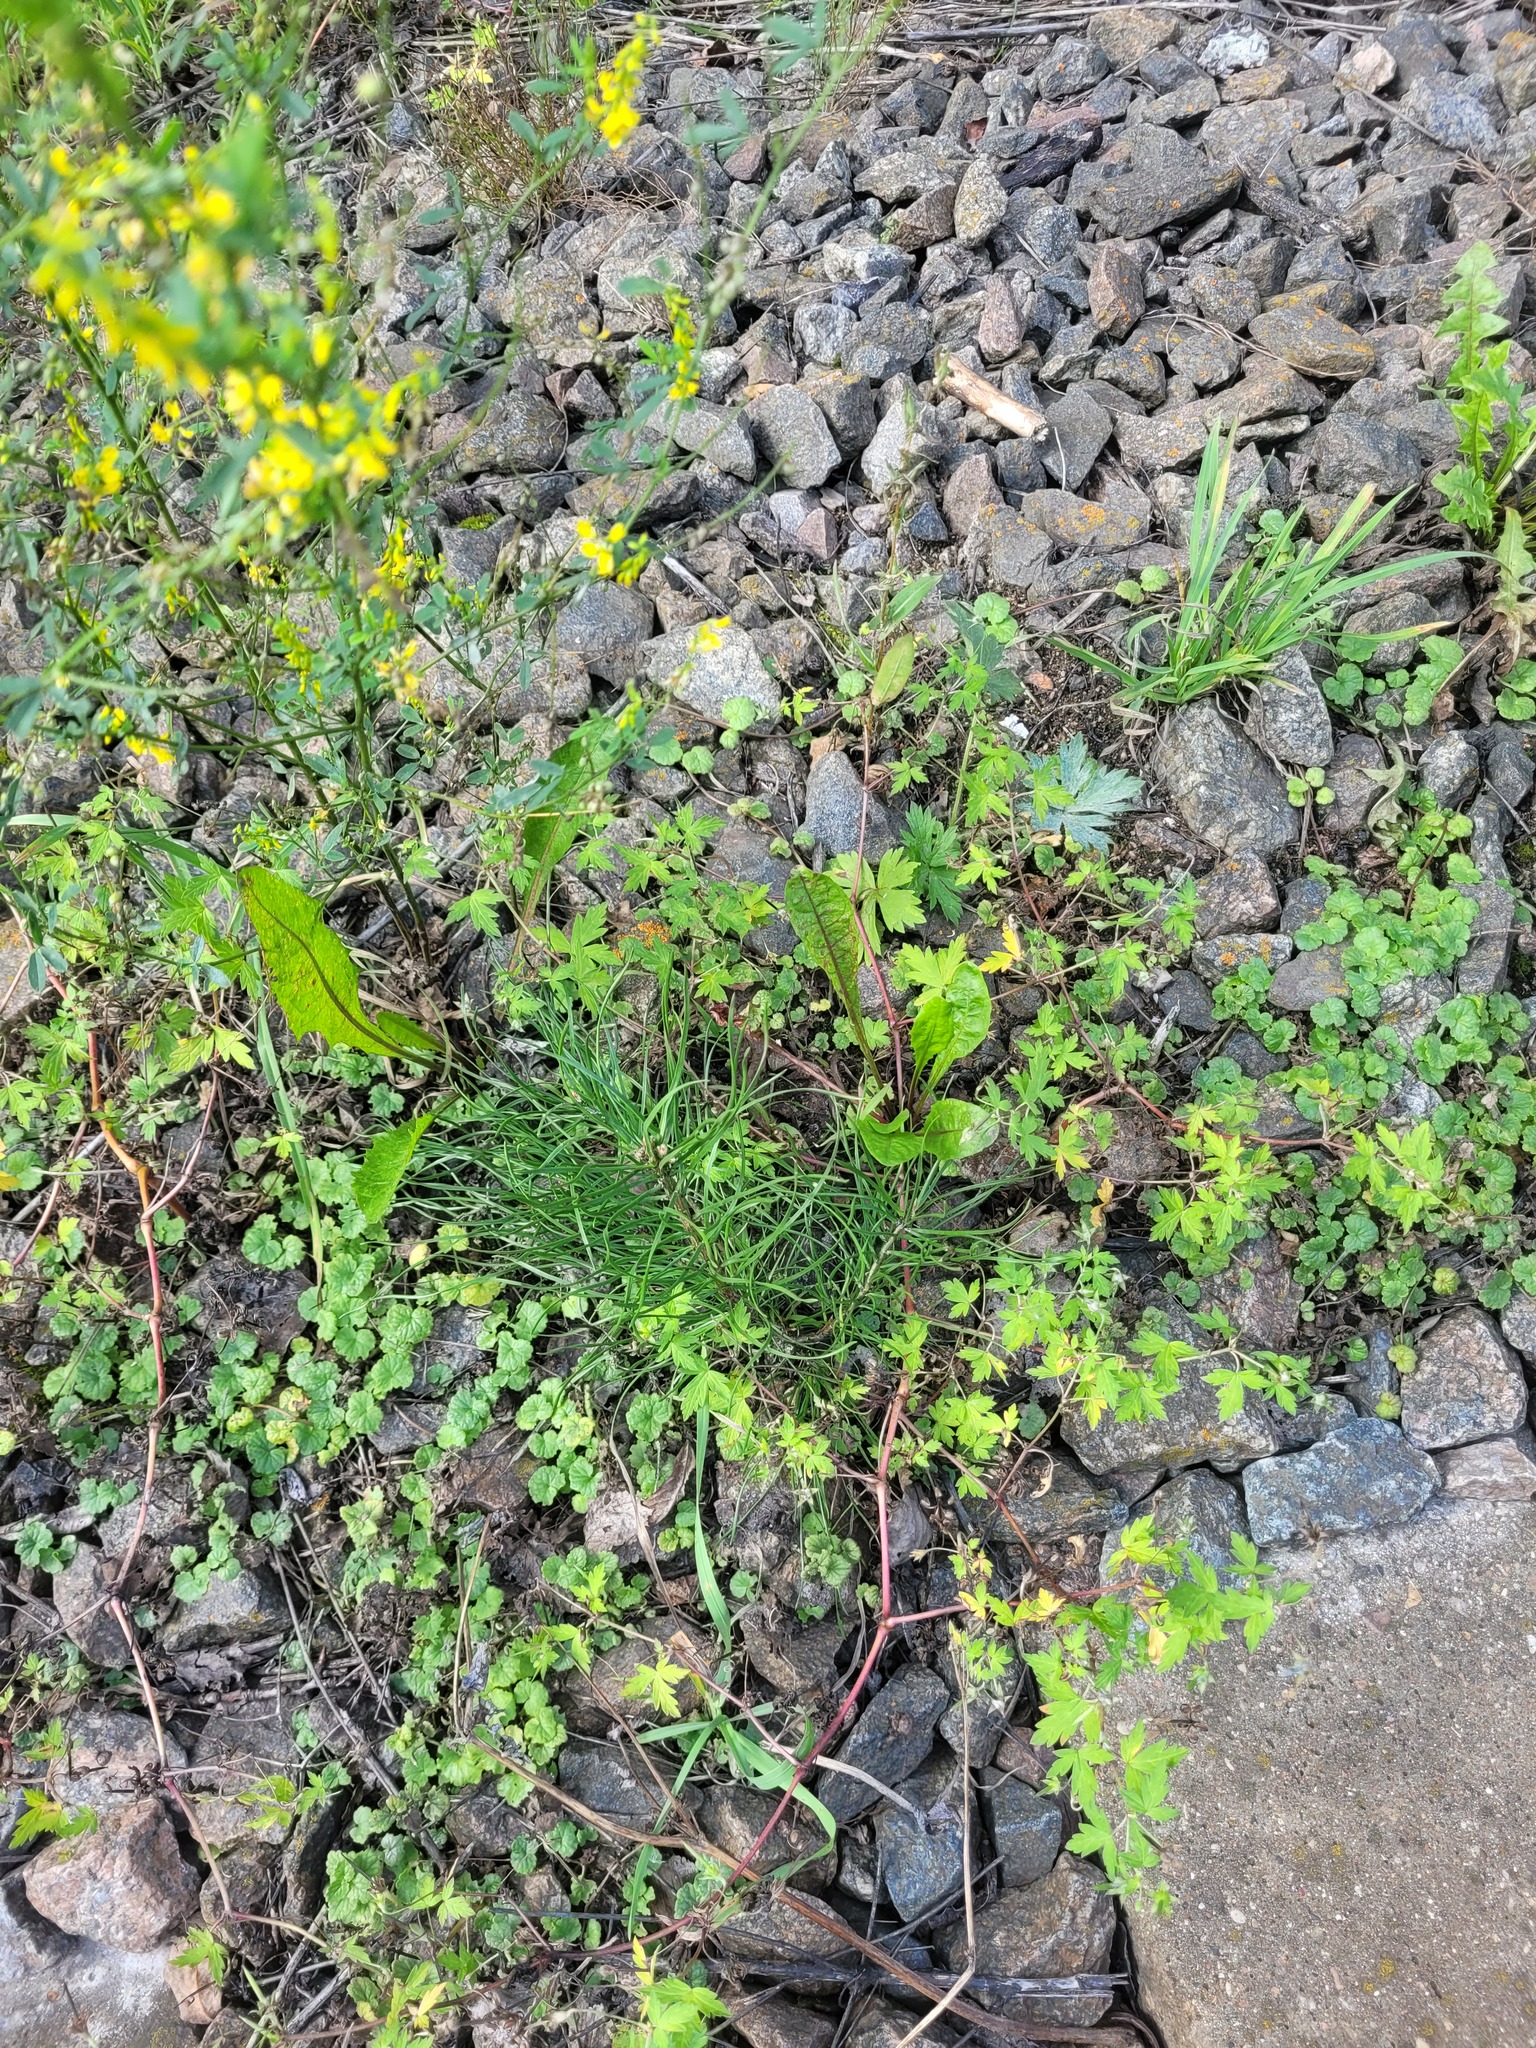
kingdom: Plantae
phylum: Tracheophyta
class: Pinopsida
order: Pinales
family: Pinaceae
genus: Pinus
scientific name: Pinus sylvestris
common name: Scots pine
